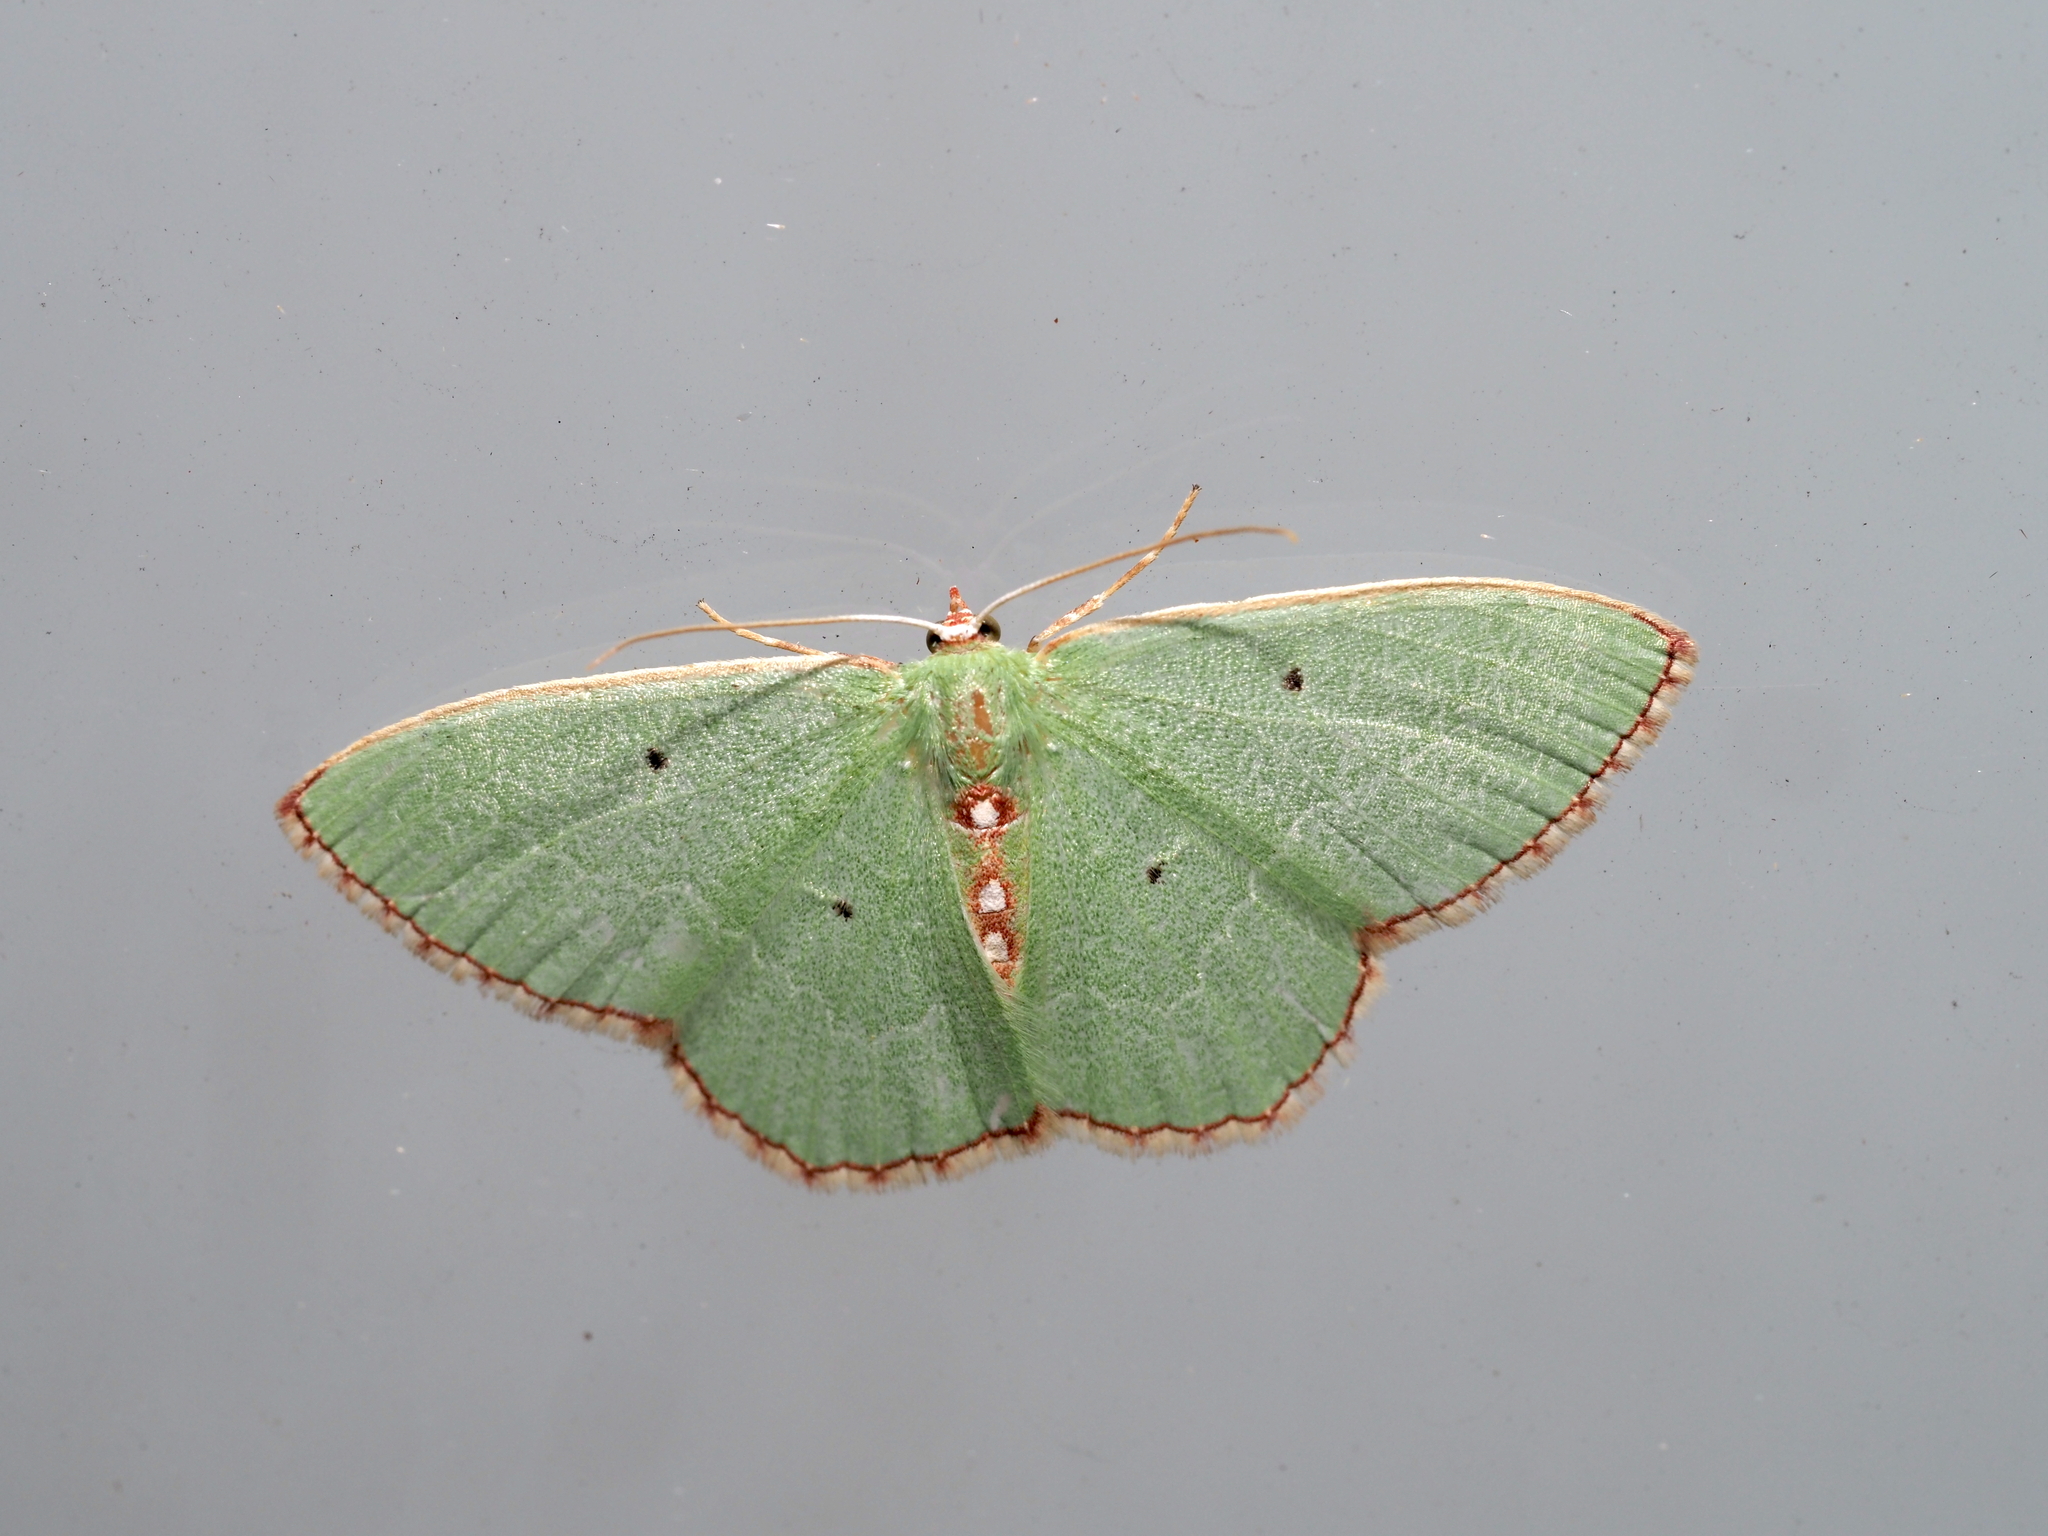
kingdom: Animalia
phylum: Arthropoda
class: Insecta
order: Lepidoptera
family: Geometridae
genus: Nemoria
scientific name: Nemoria lixaria
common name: Red-bordered emerald
